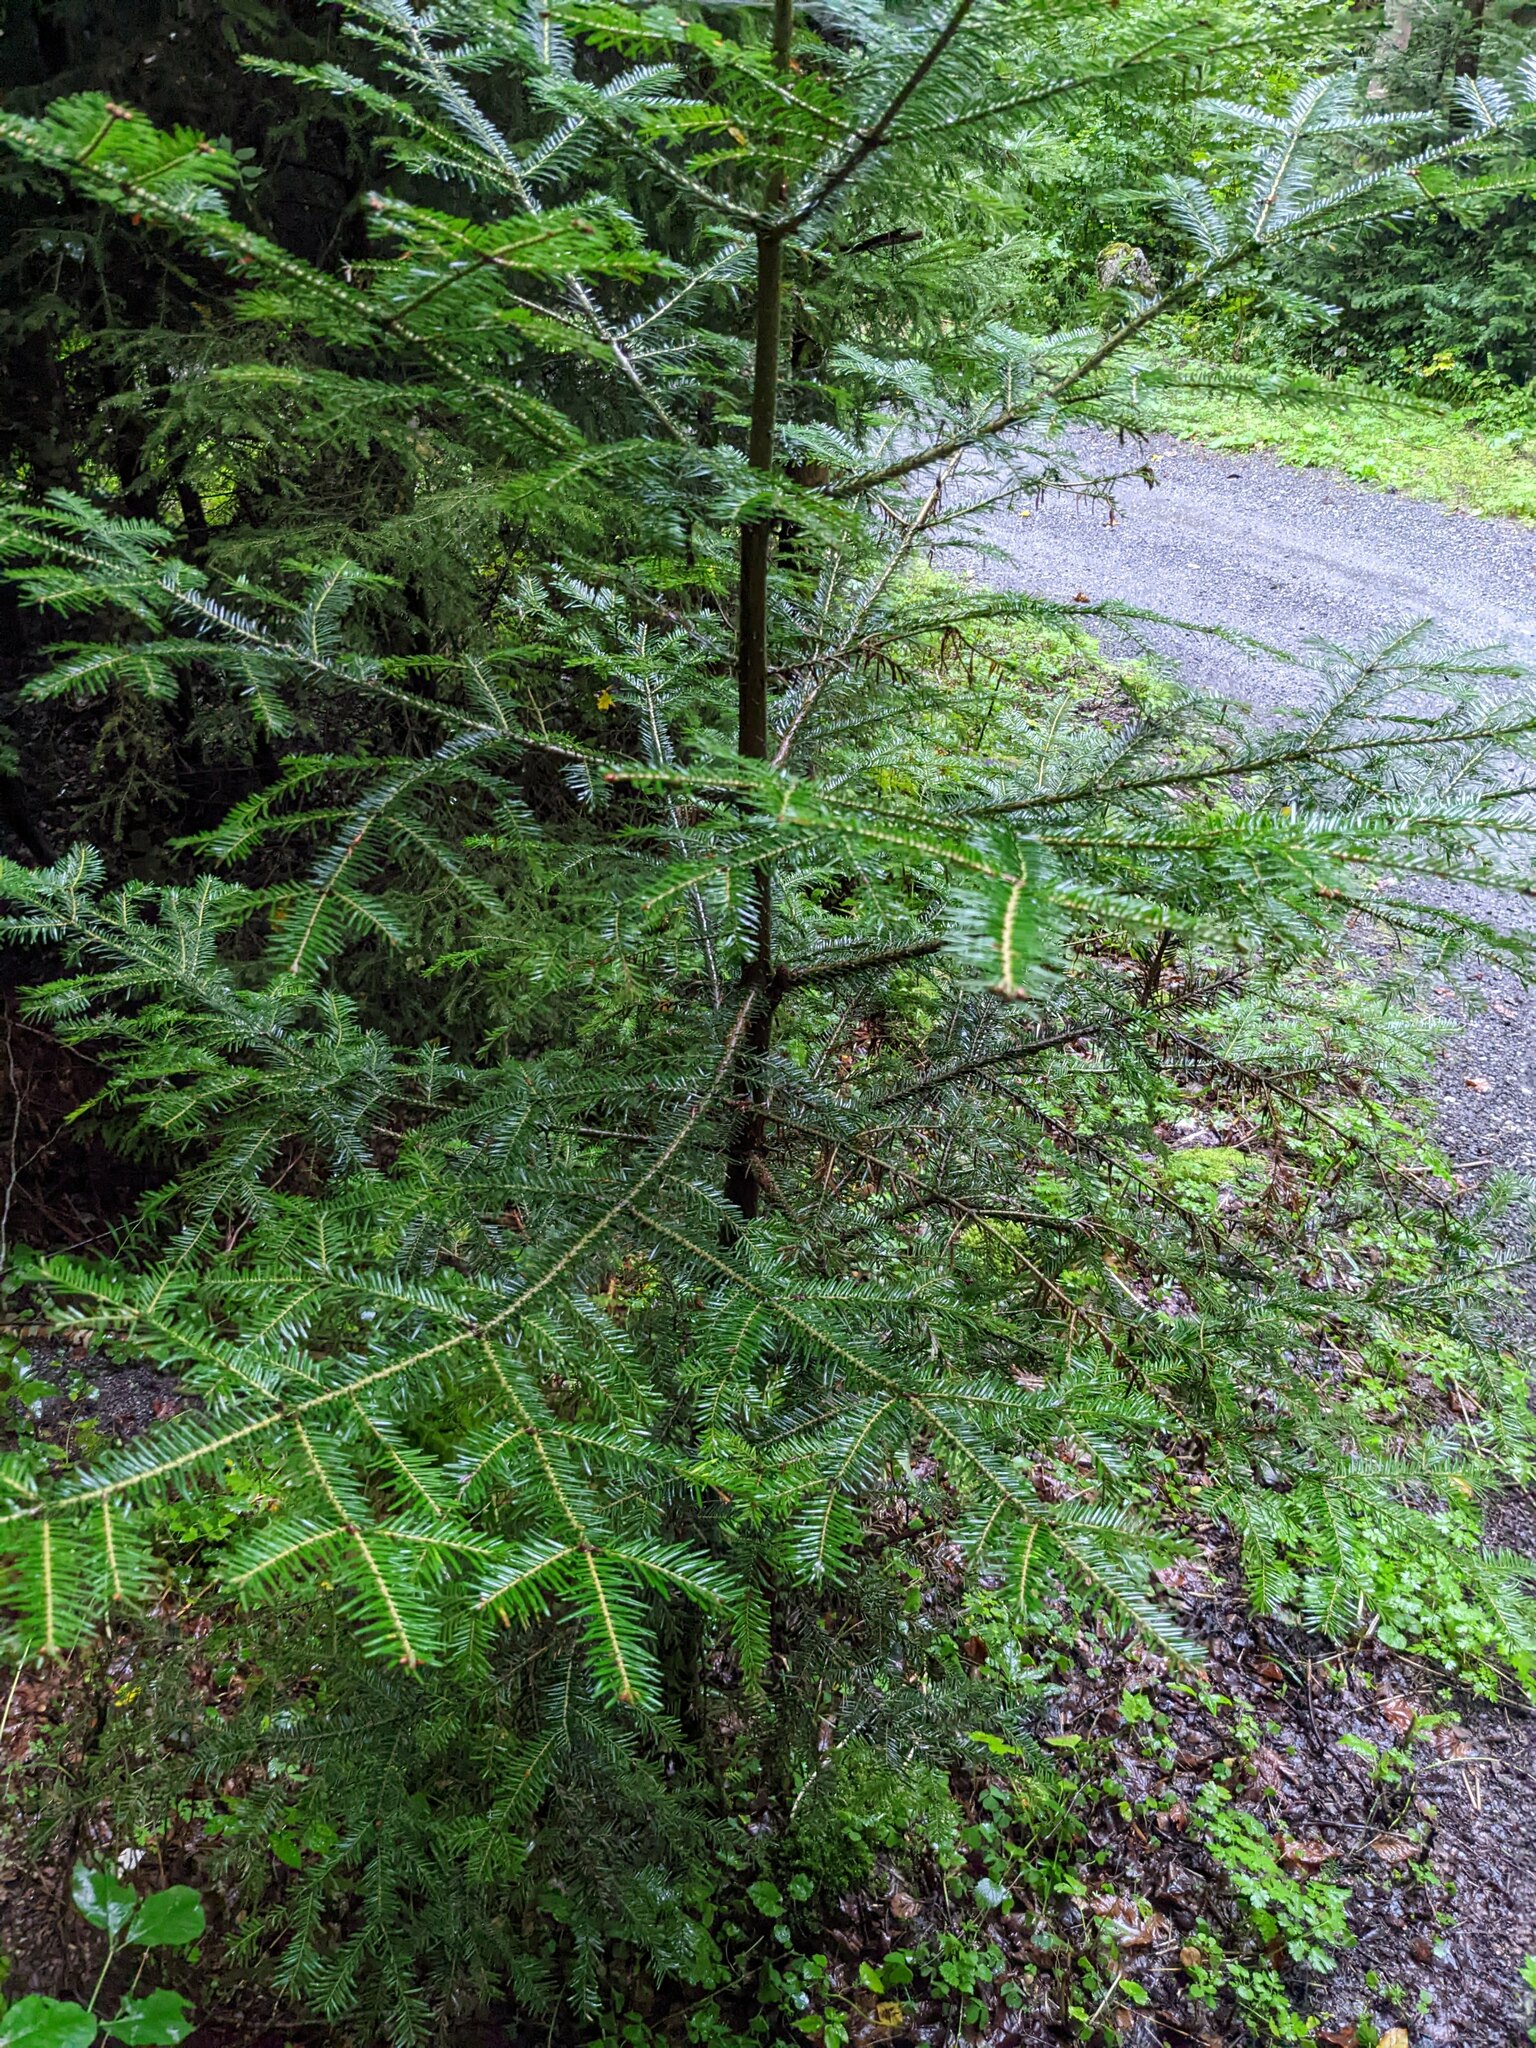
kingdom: Plantae
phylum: Tracheophyta
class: Pinopsida
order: Pinales
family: Pinaceae
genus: Abies
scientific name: Abies alba
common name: Silver fir
